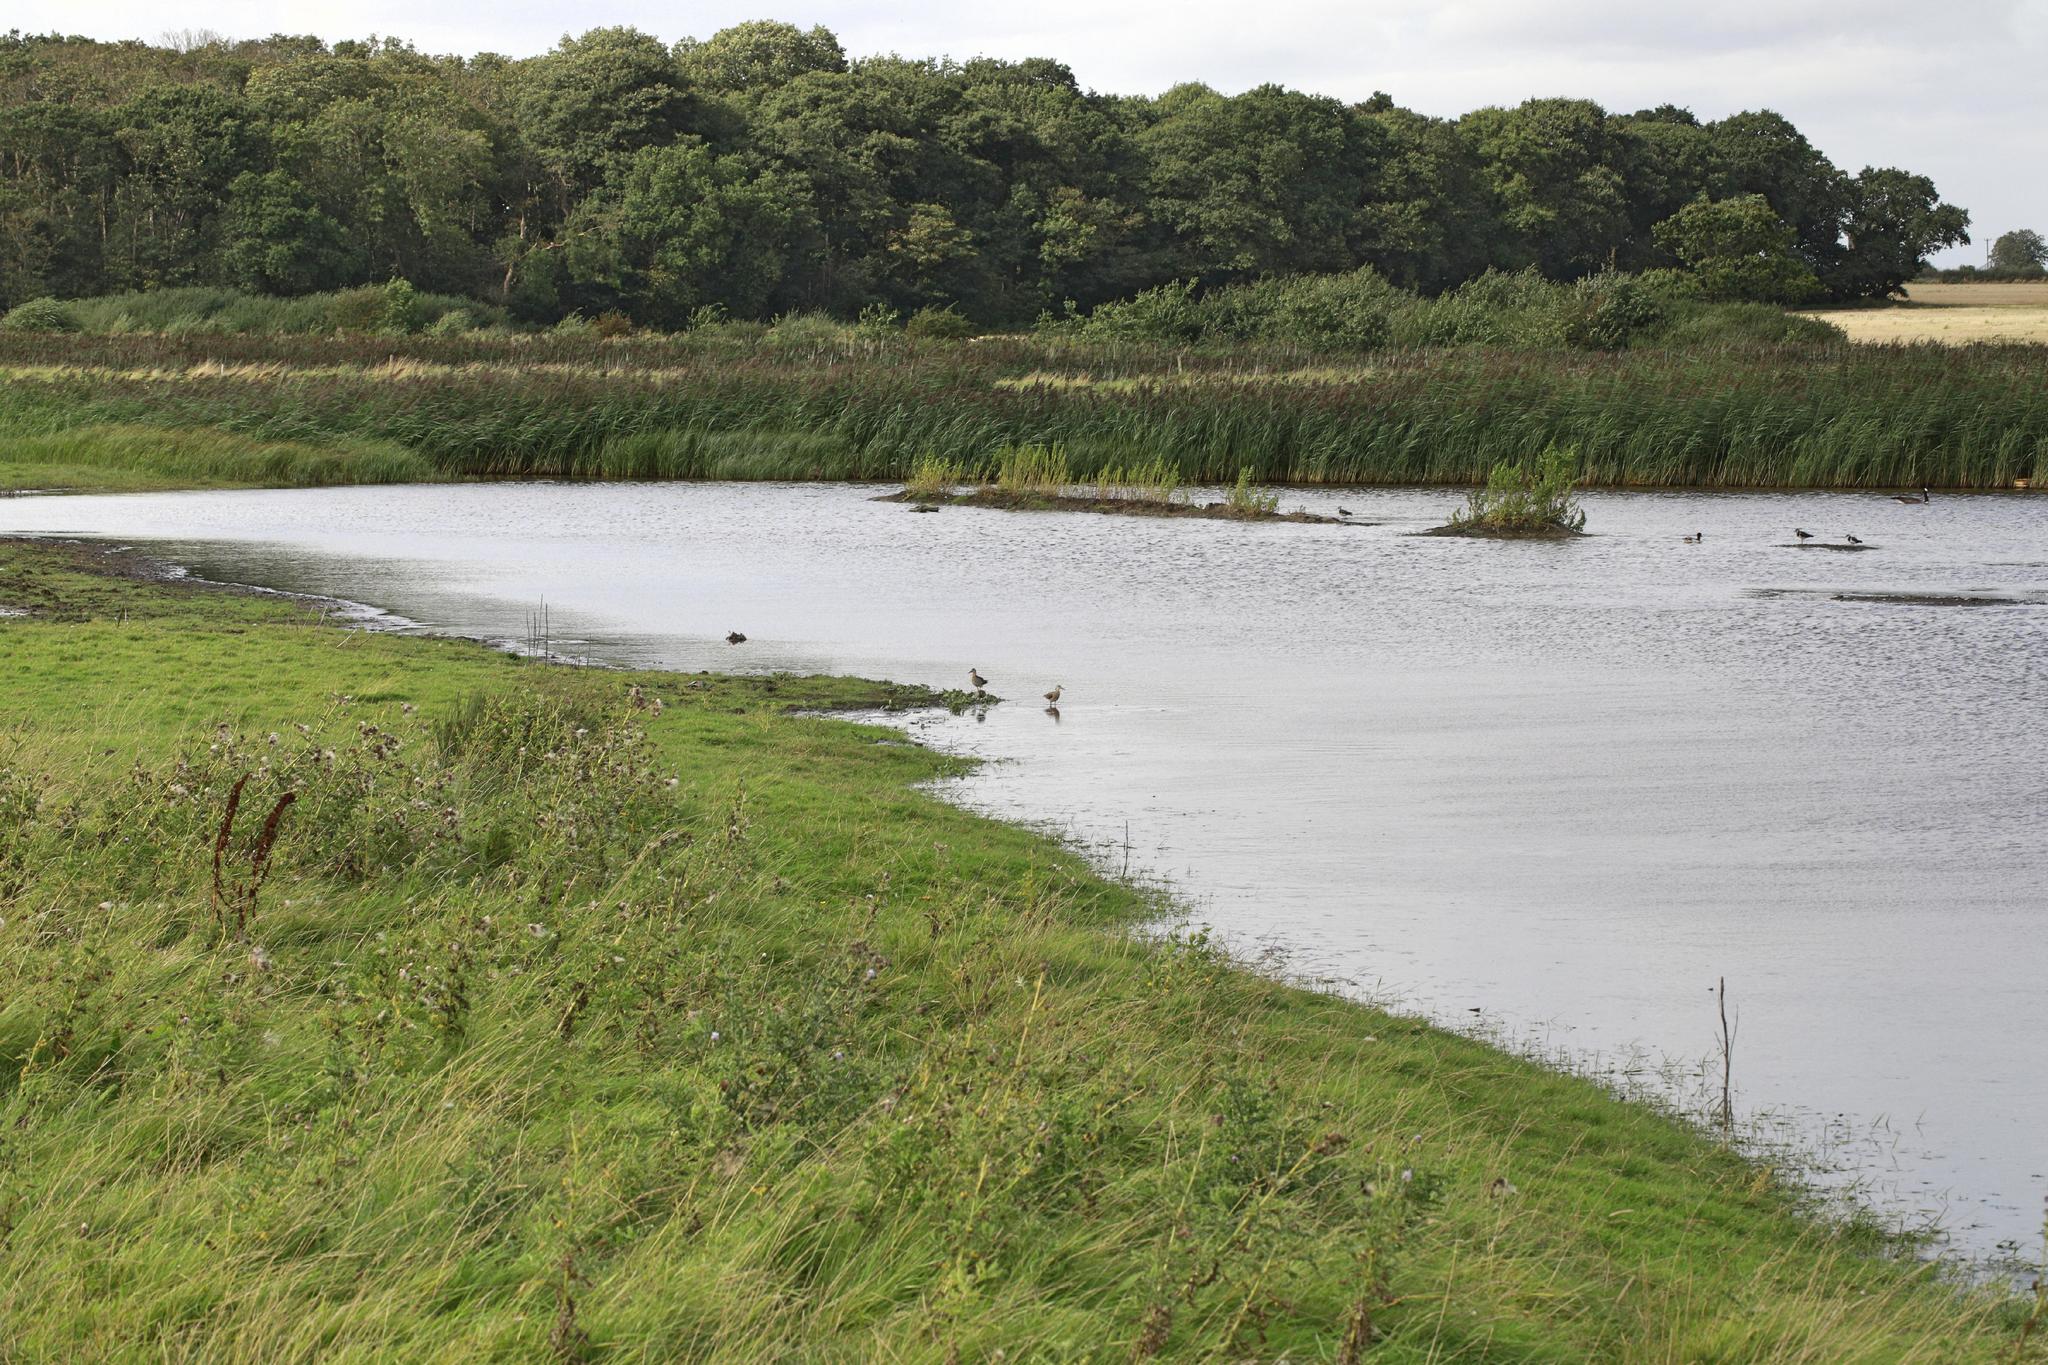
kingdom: Animalia
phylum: Chordata
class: Aves
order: Charadriiformes
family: Scolopacidae
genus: Calidris
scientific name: Calidris pugnax
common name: Ruff
